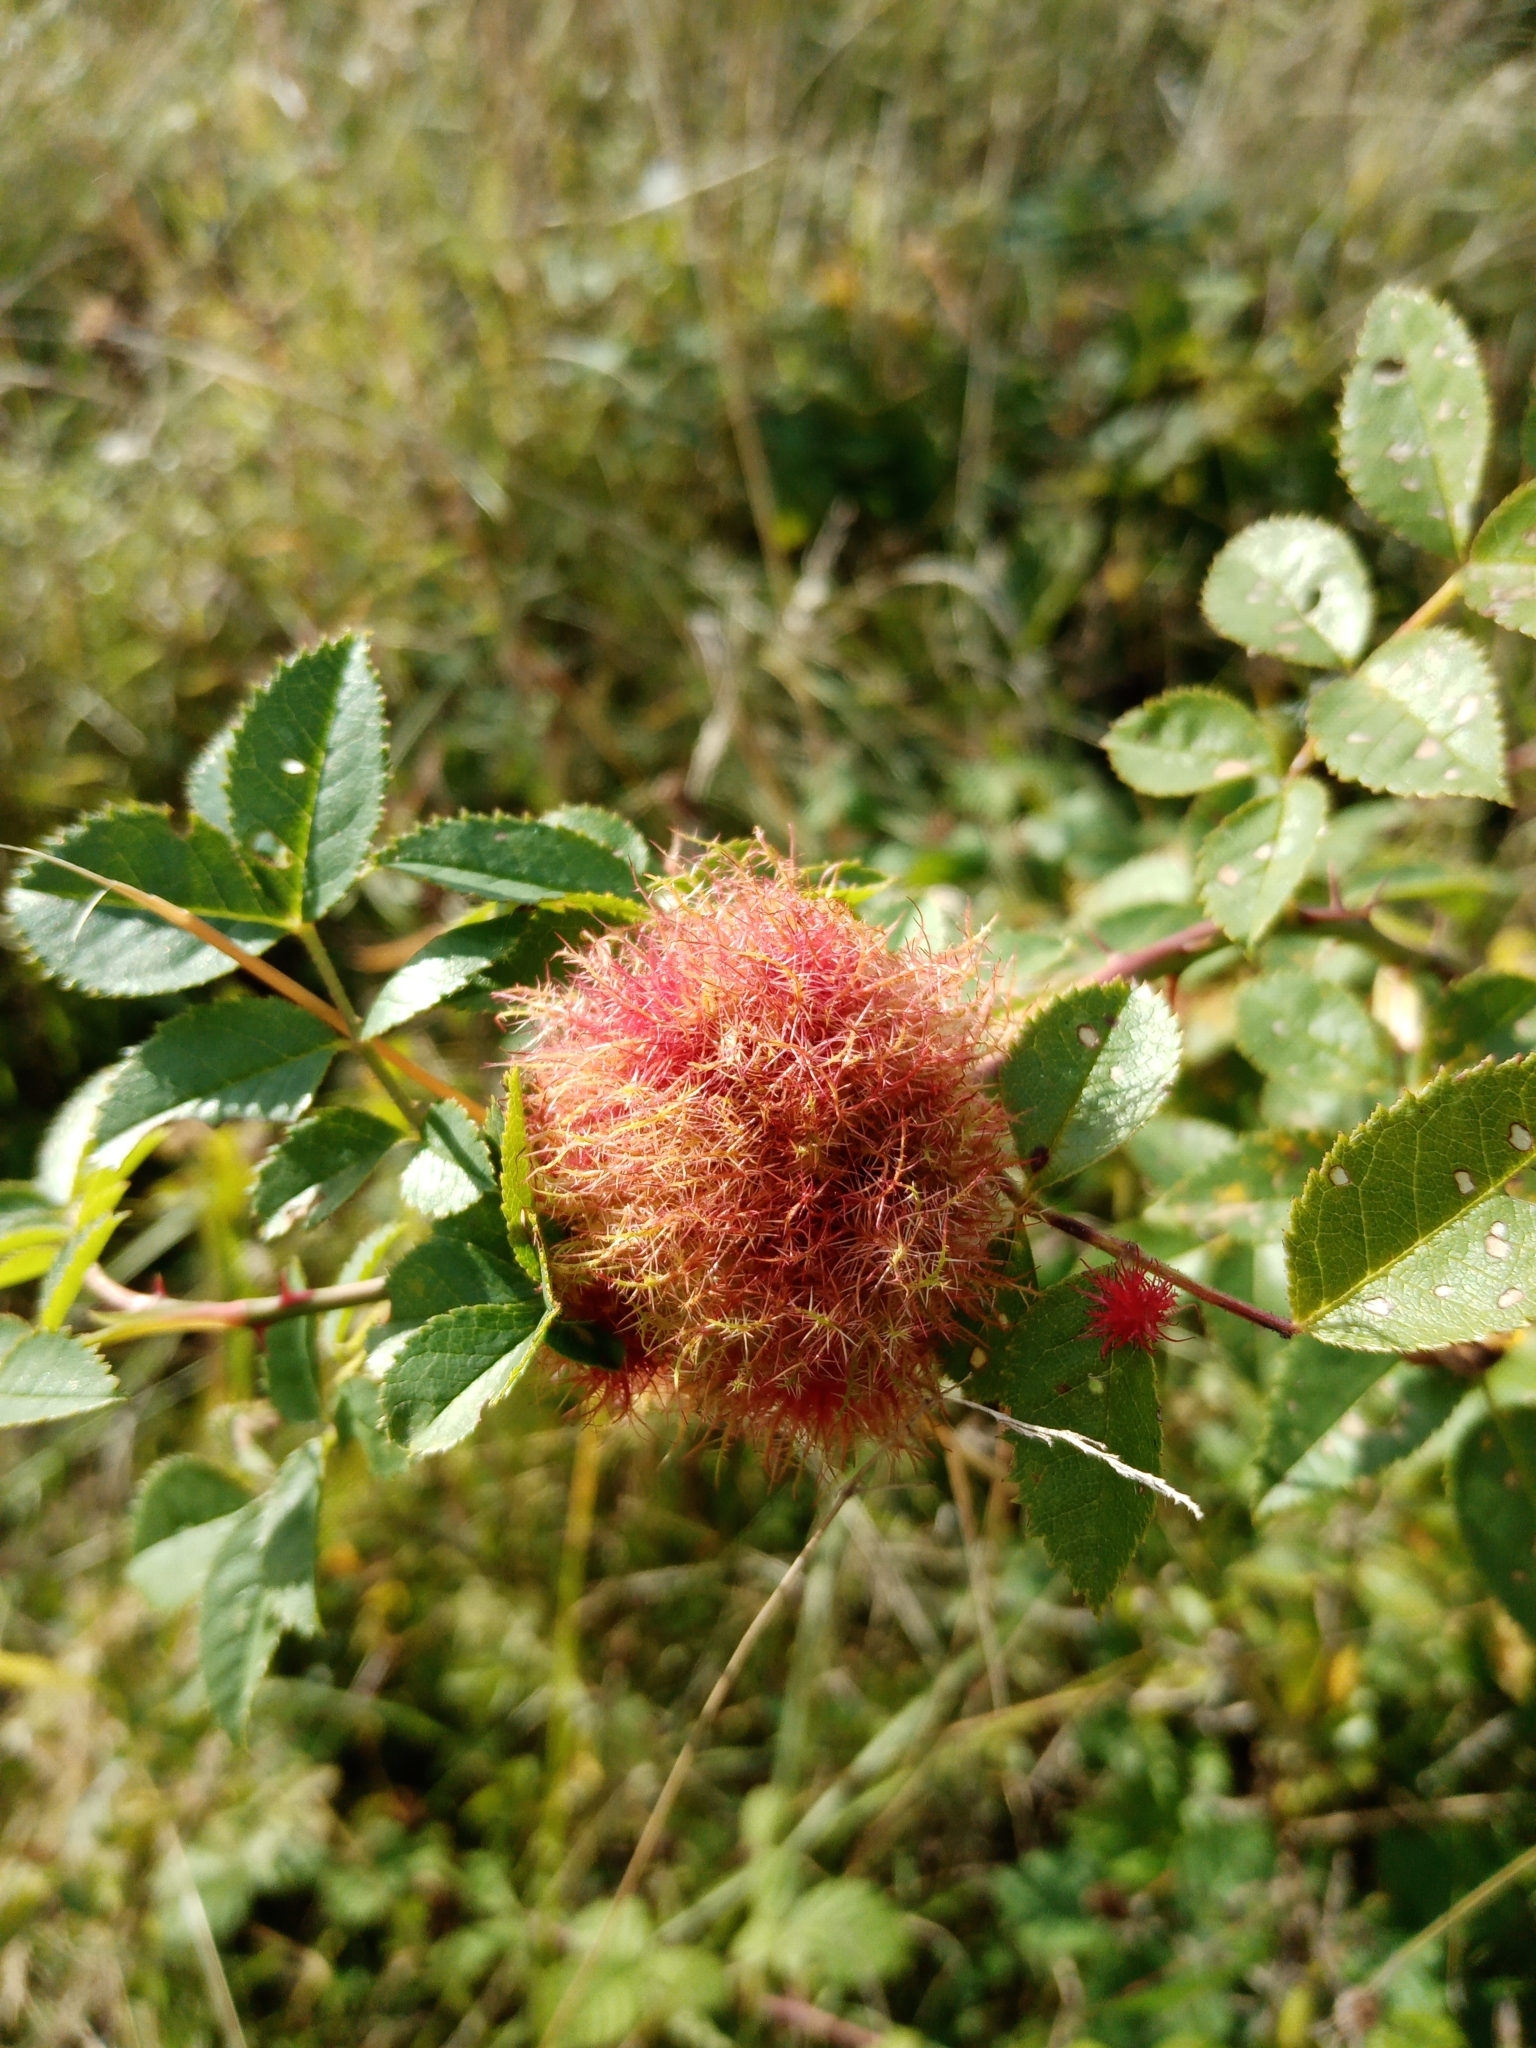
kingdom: Animalia
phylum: Arthropoda
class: Insecta
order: Hymenoptera
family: Cynipidae
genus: Diplolepis
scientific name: Diplolepis rosae
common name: Bedeguar gall
